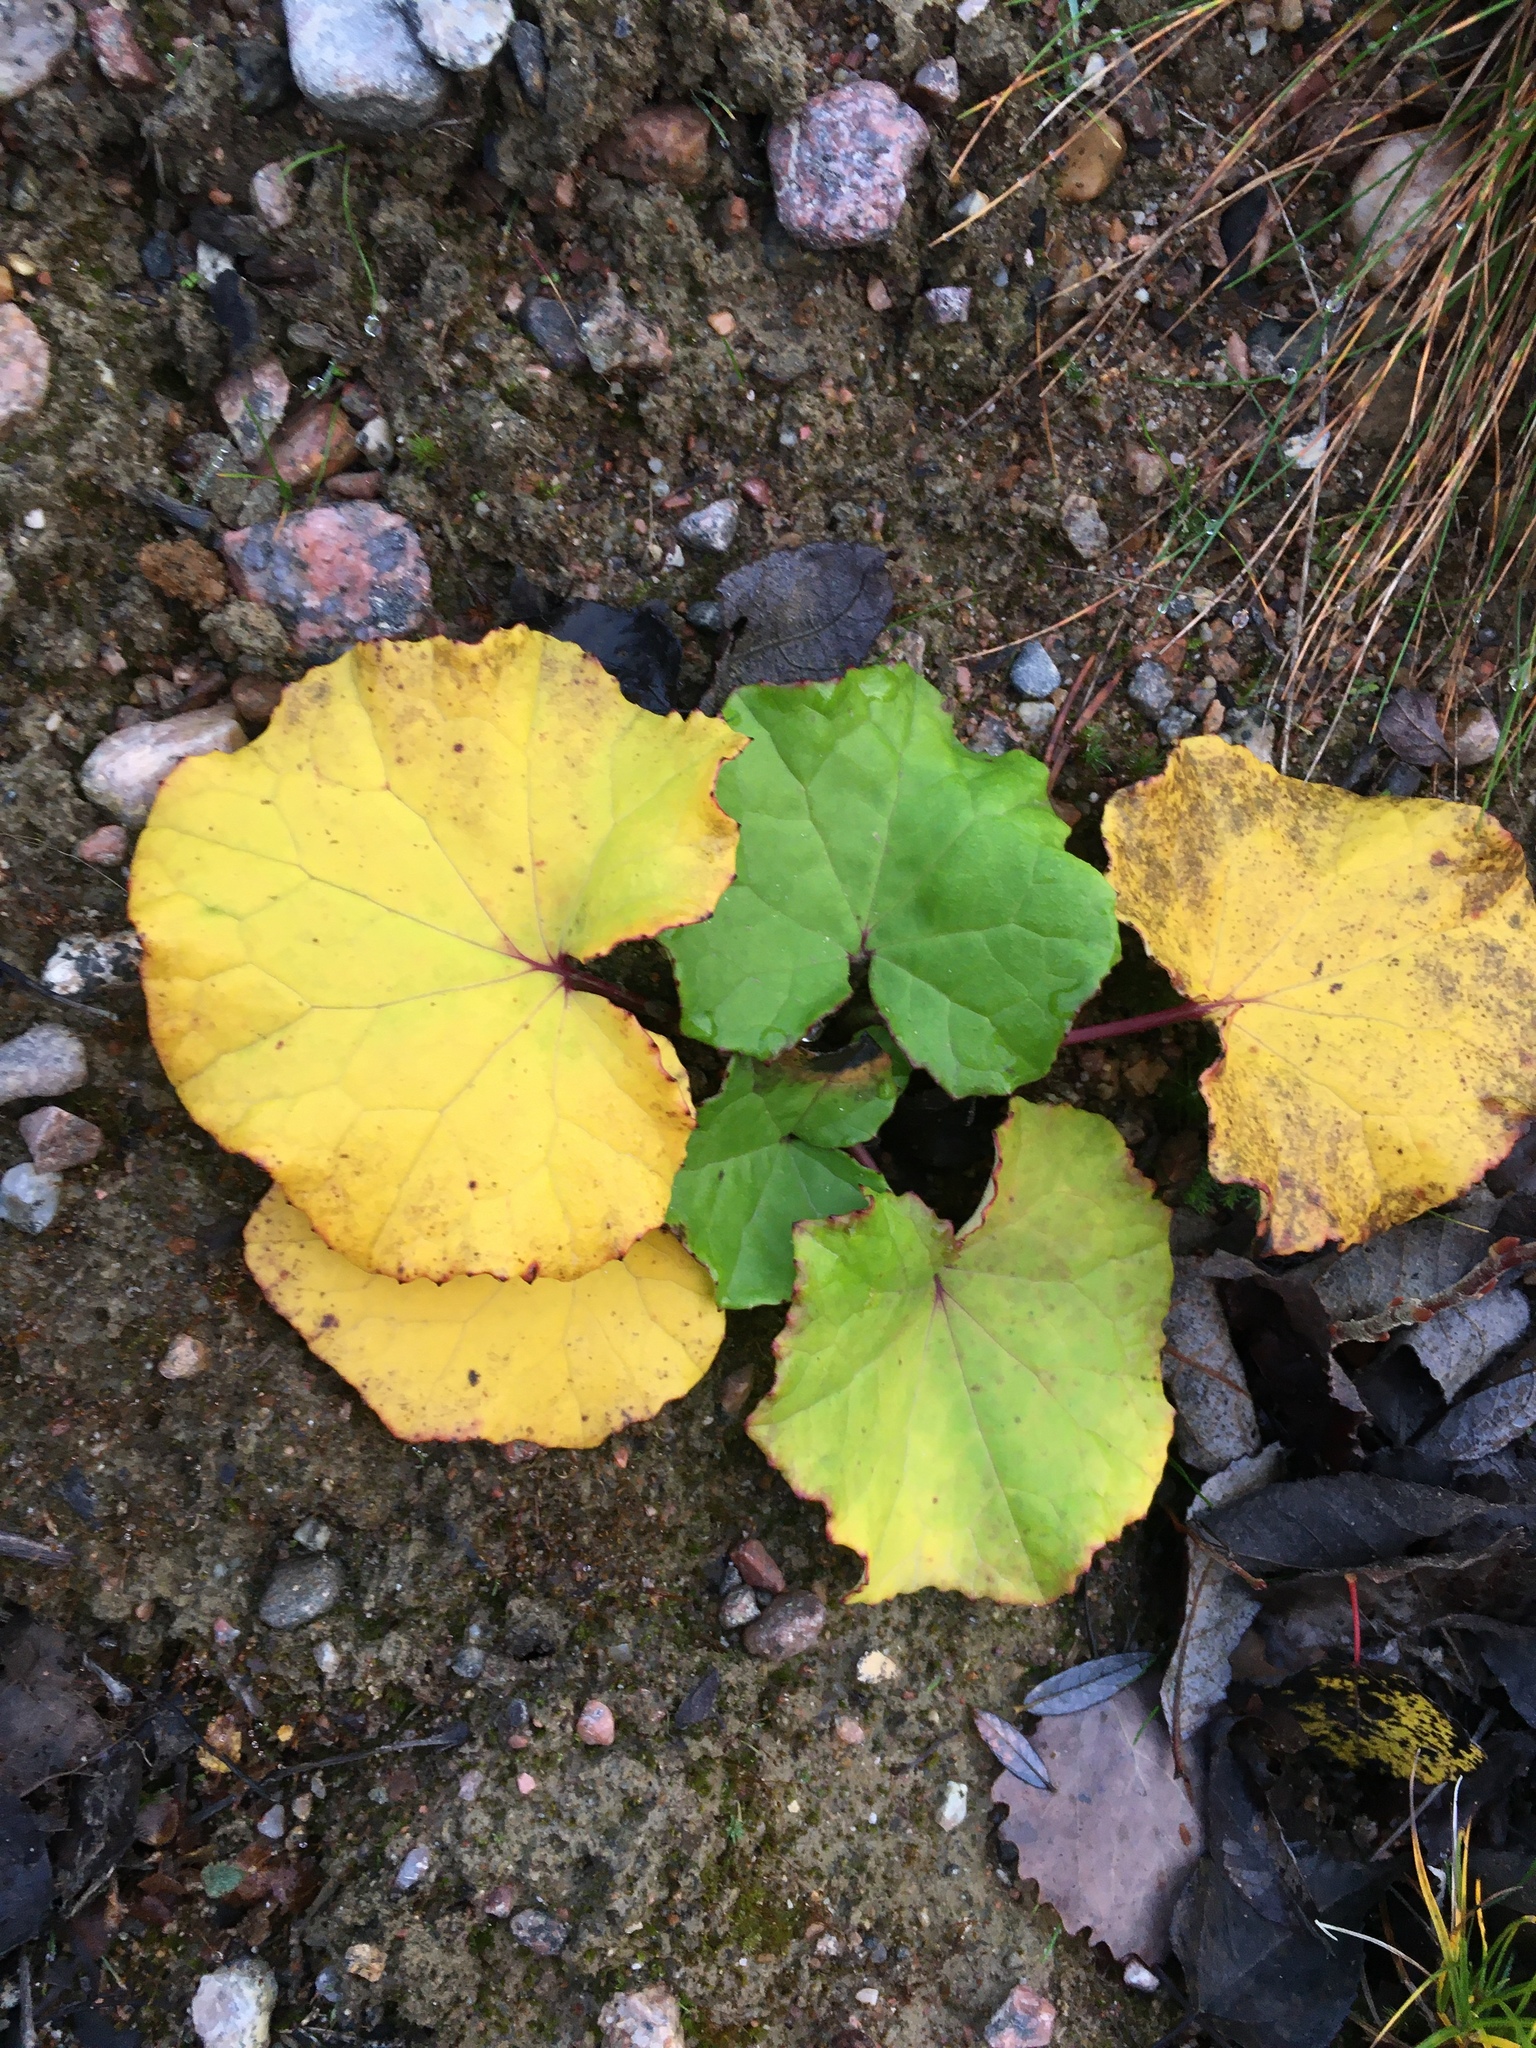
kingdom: Plantae
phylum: Tracheophyta
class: Magnoliopsida
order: Asterales
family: Asteraceae
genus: Tussilago
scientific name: Tussilago farfara
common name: Coltsfoot
